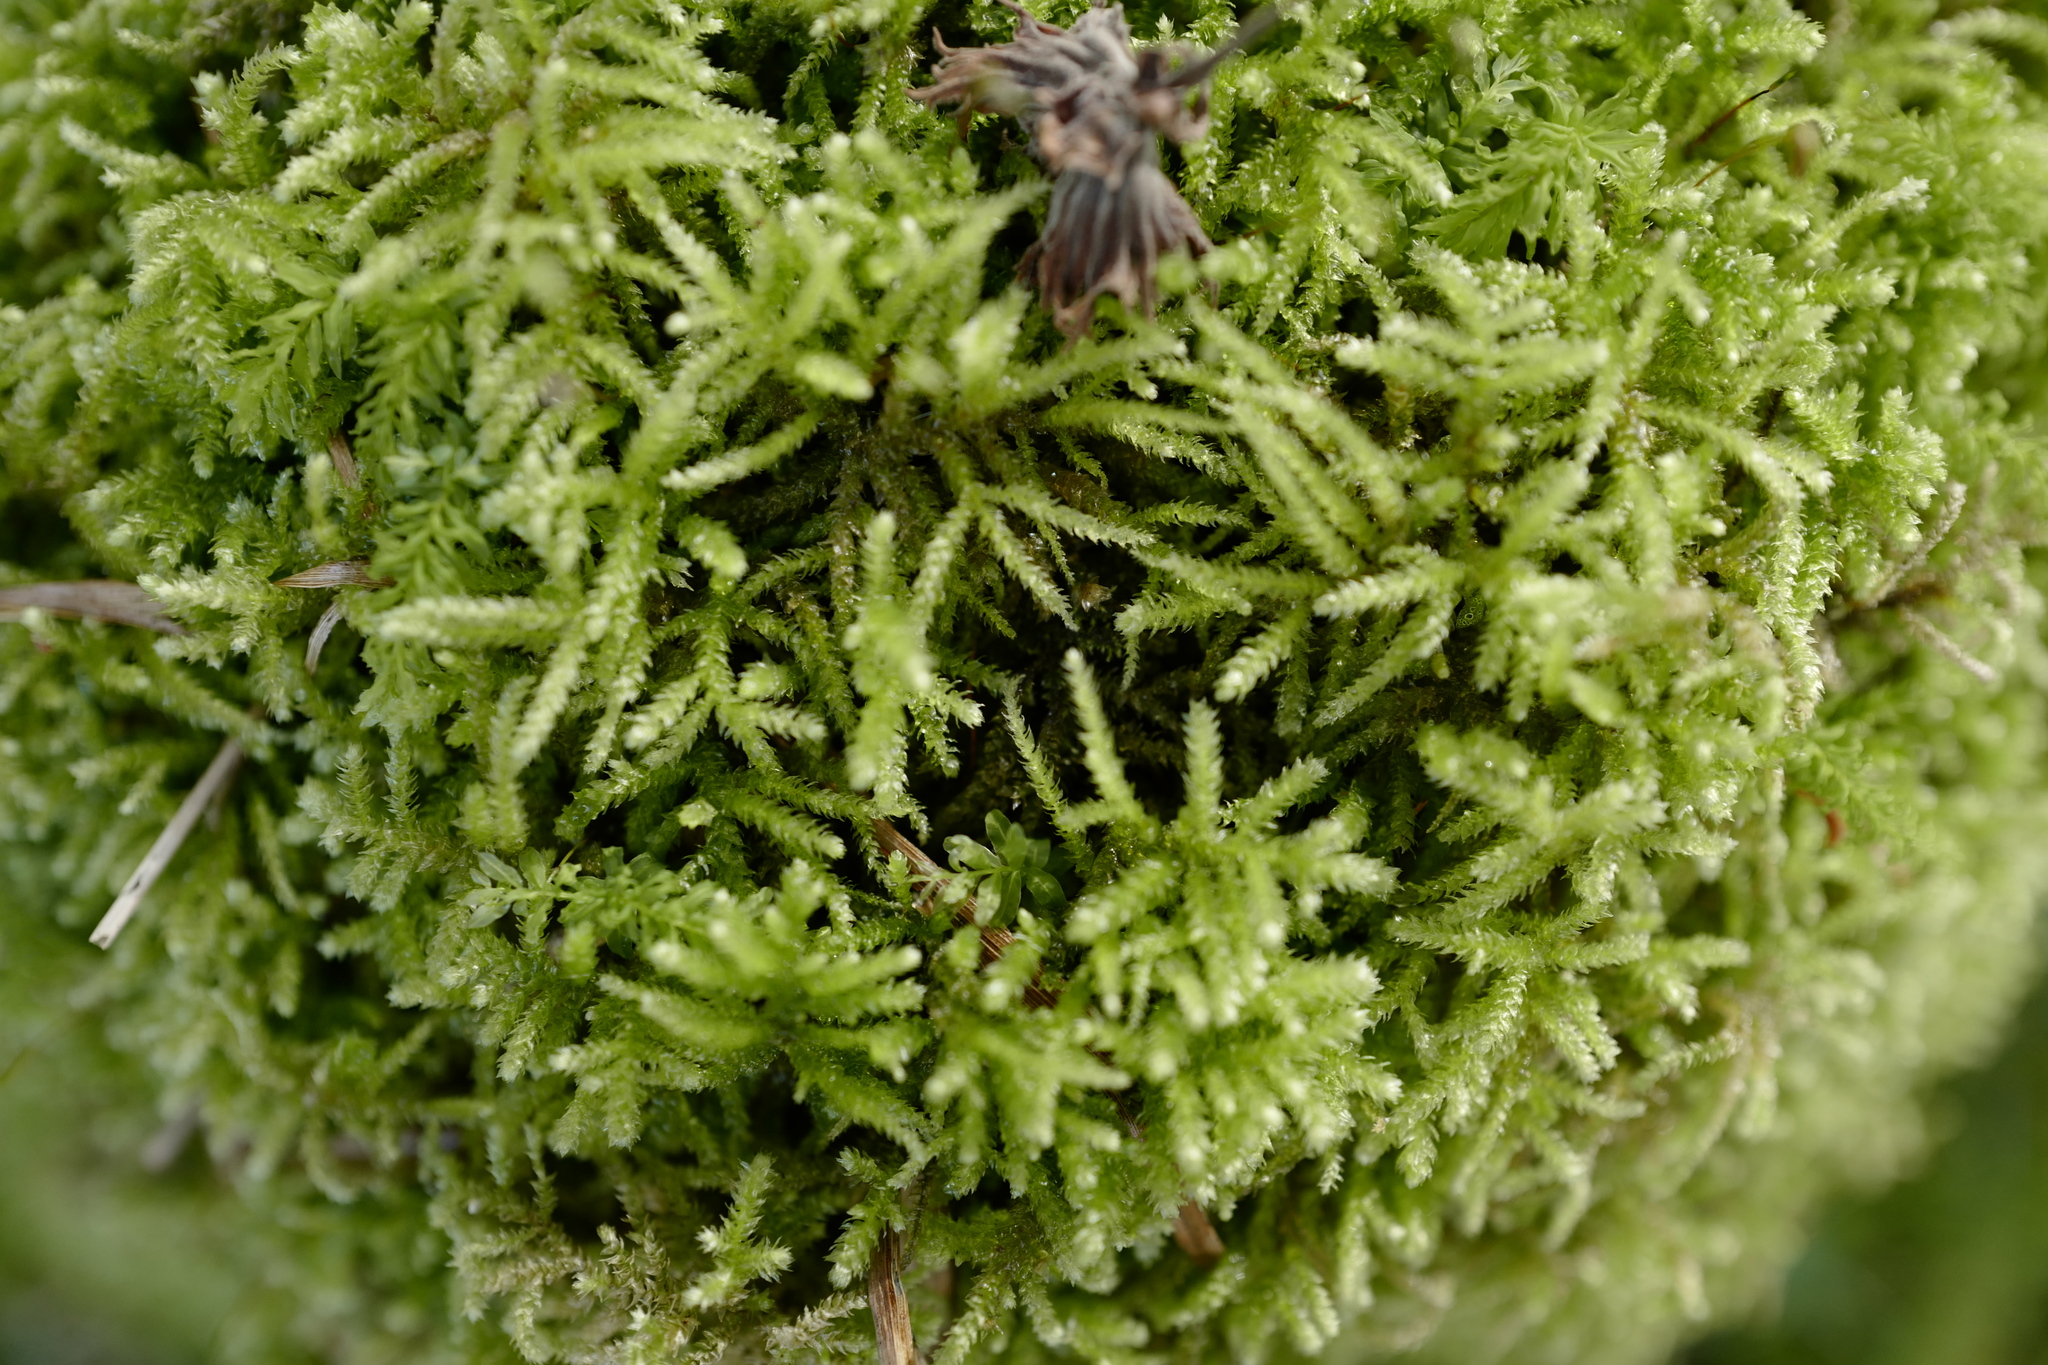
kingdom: Plantae
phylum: Bryophyta
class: Bryopsida
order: Hypnales
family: Brachytheciaceae
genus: Eurhynchium
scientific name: Eurhynchium angustirete
